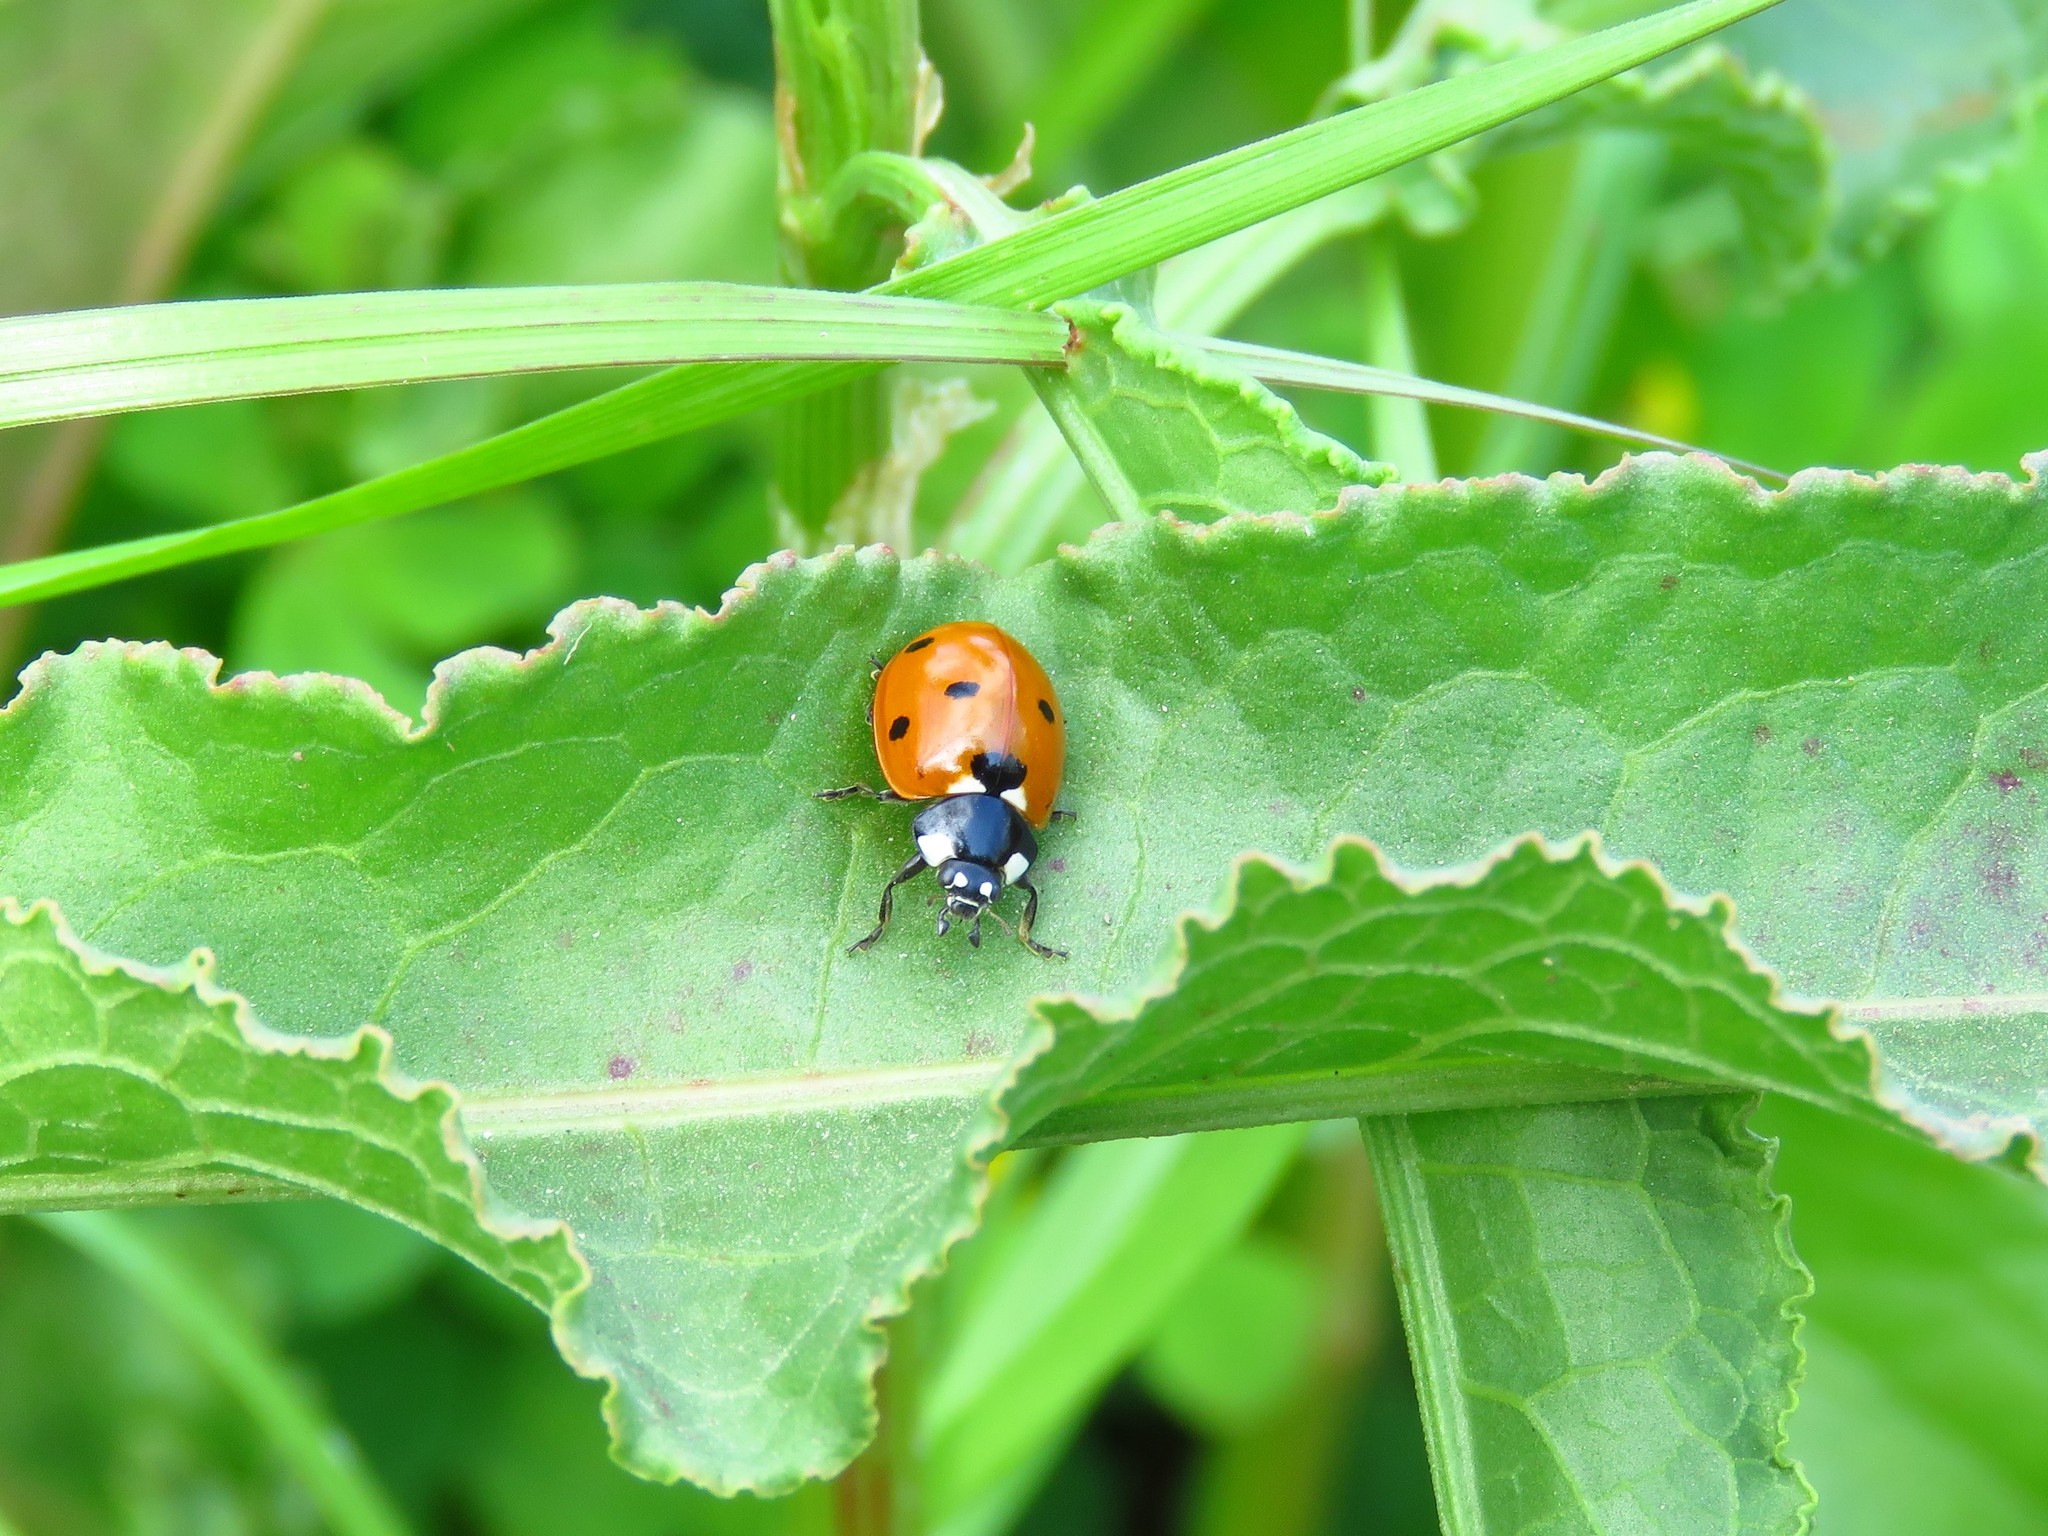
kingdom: Animalia
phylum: Arthropoda
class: Insecta
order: Coleoptera
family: Coccinellidae
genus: Coccinella
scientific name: Coccinella septempunctata
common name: Sevenspotted lady beetle
